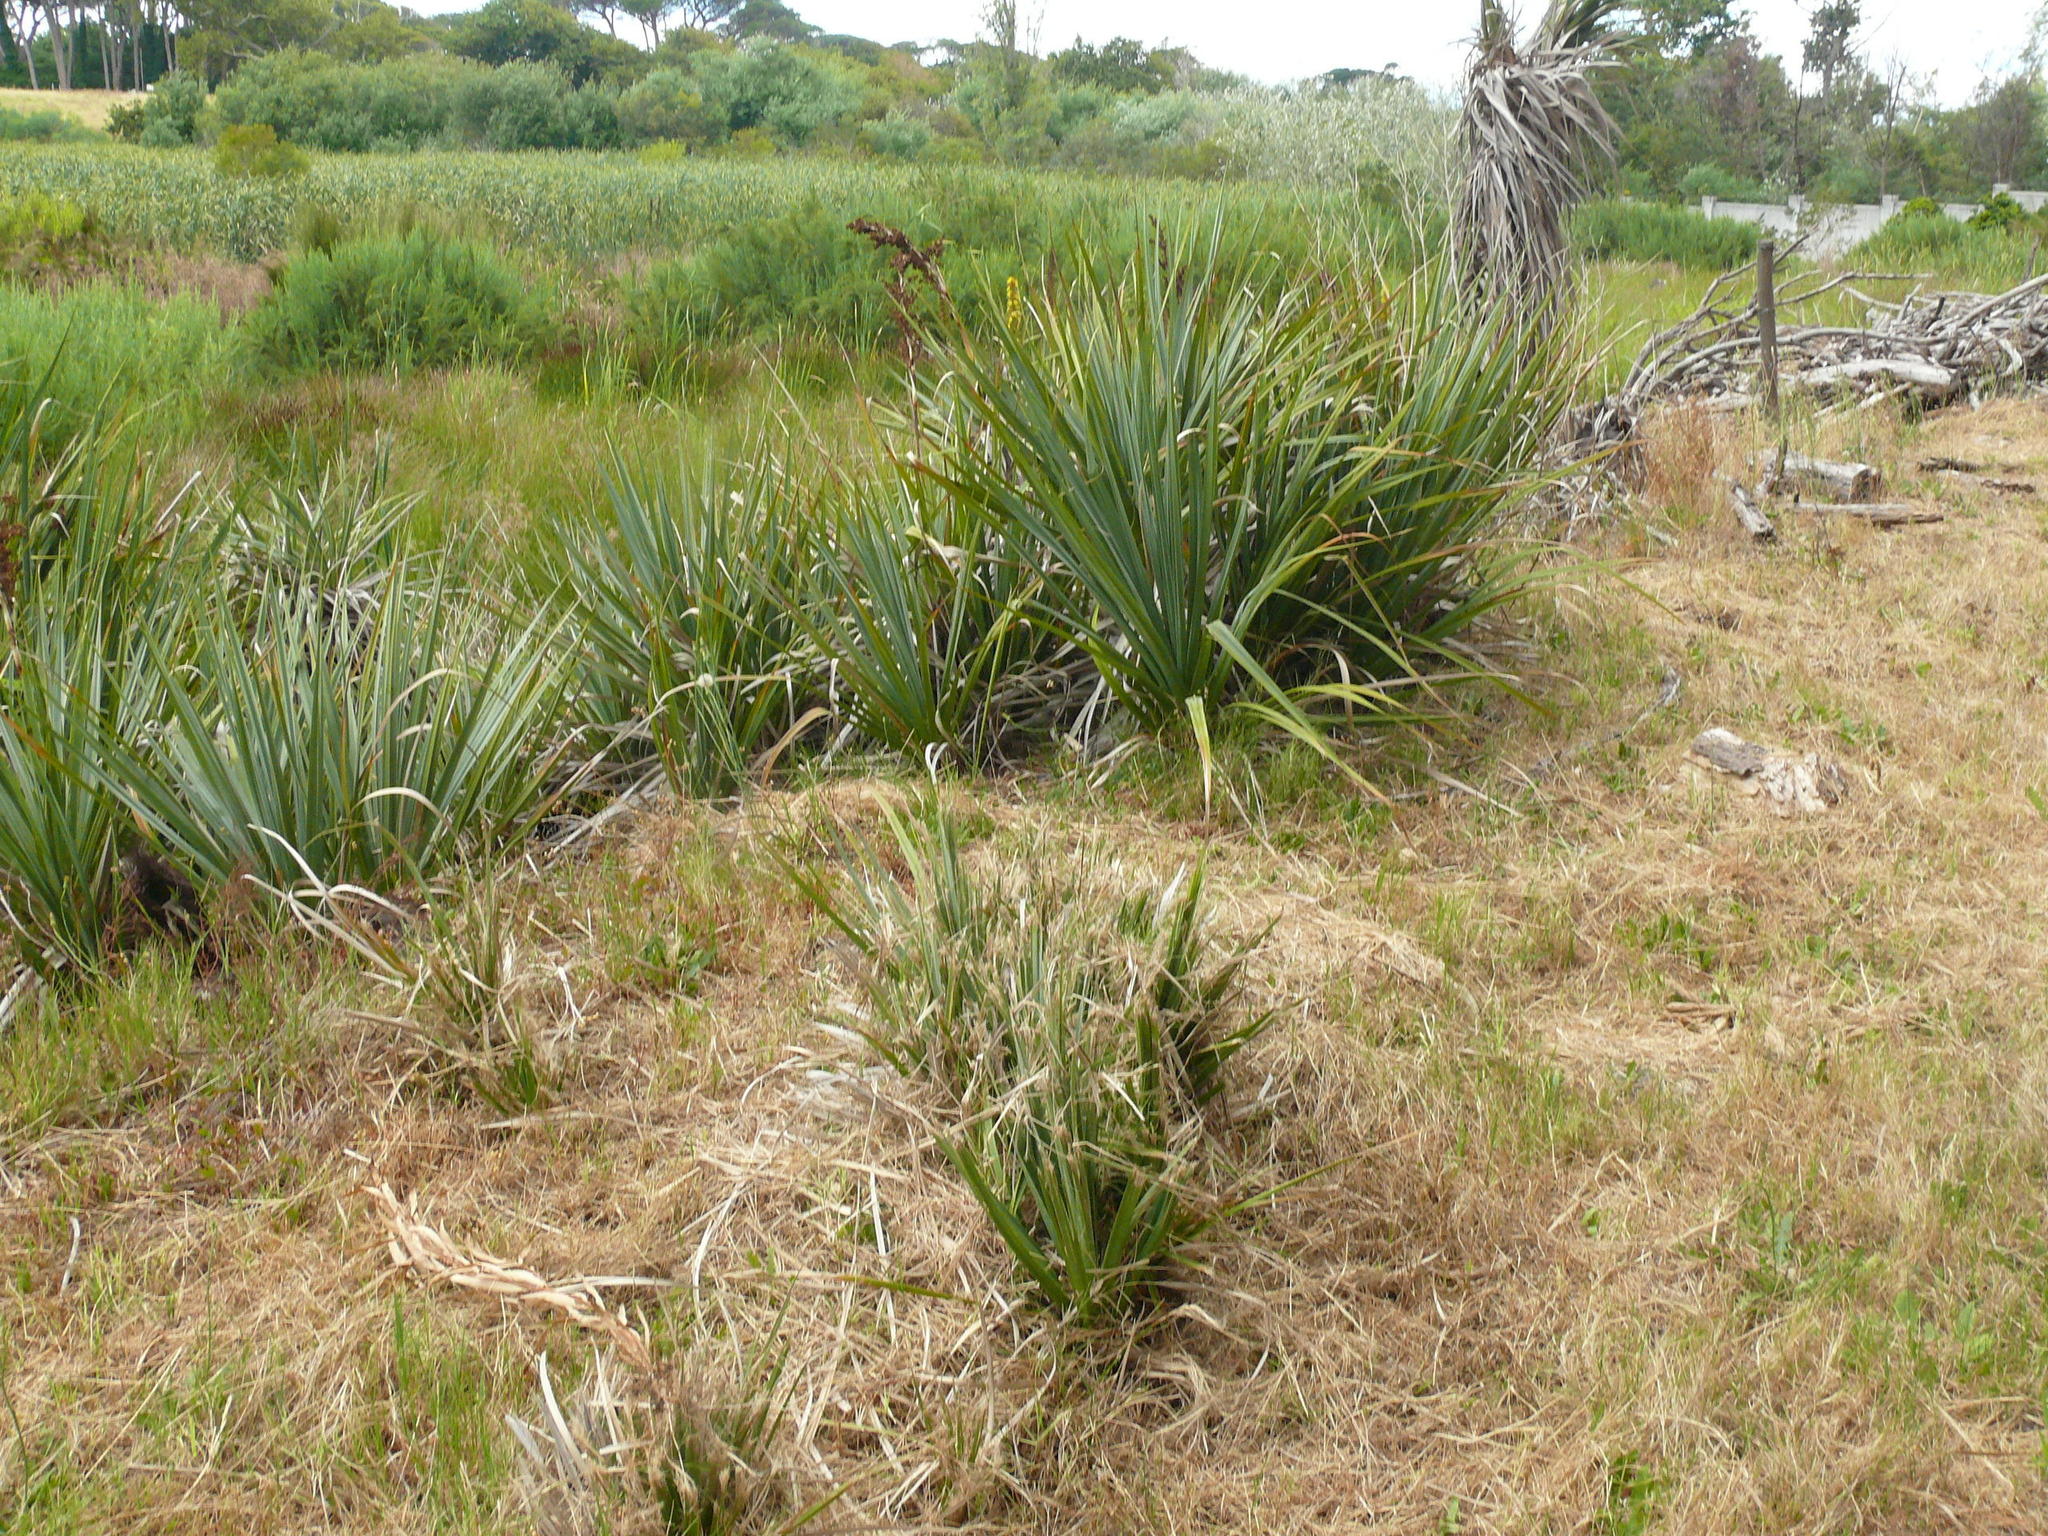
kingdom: Plantae
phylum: Tracheophyta
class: Liliopsida
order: Poales
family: Thurniaceae
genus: Prionium
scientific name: Prionium serratum
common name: Palmiet
